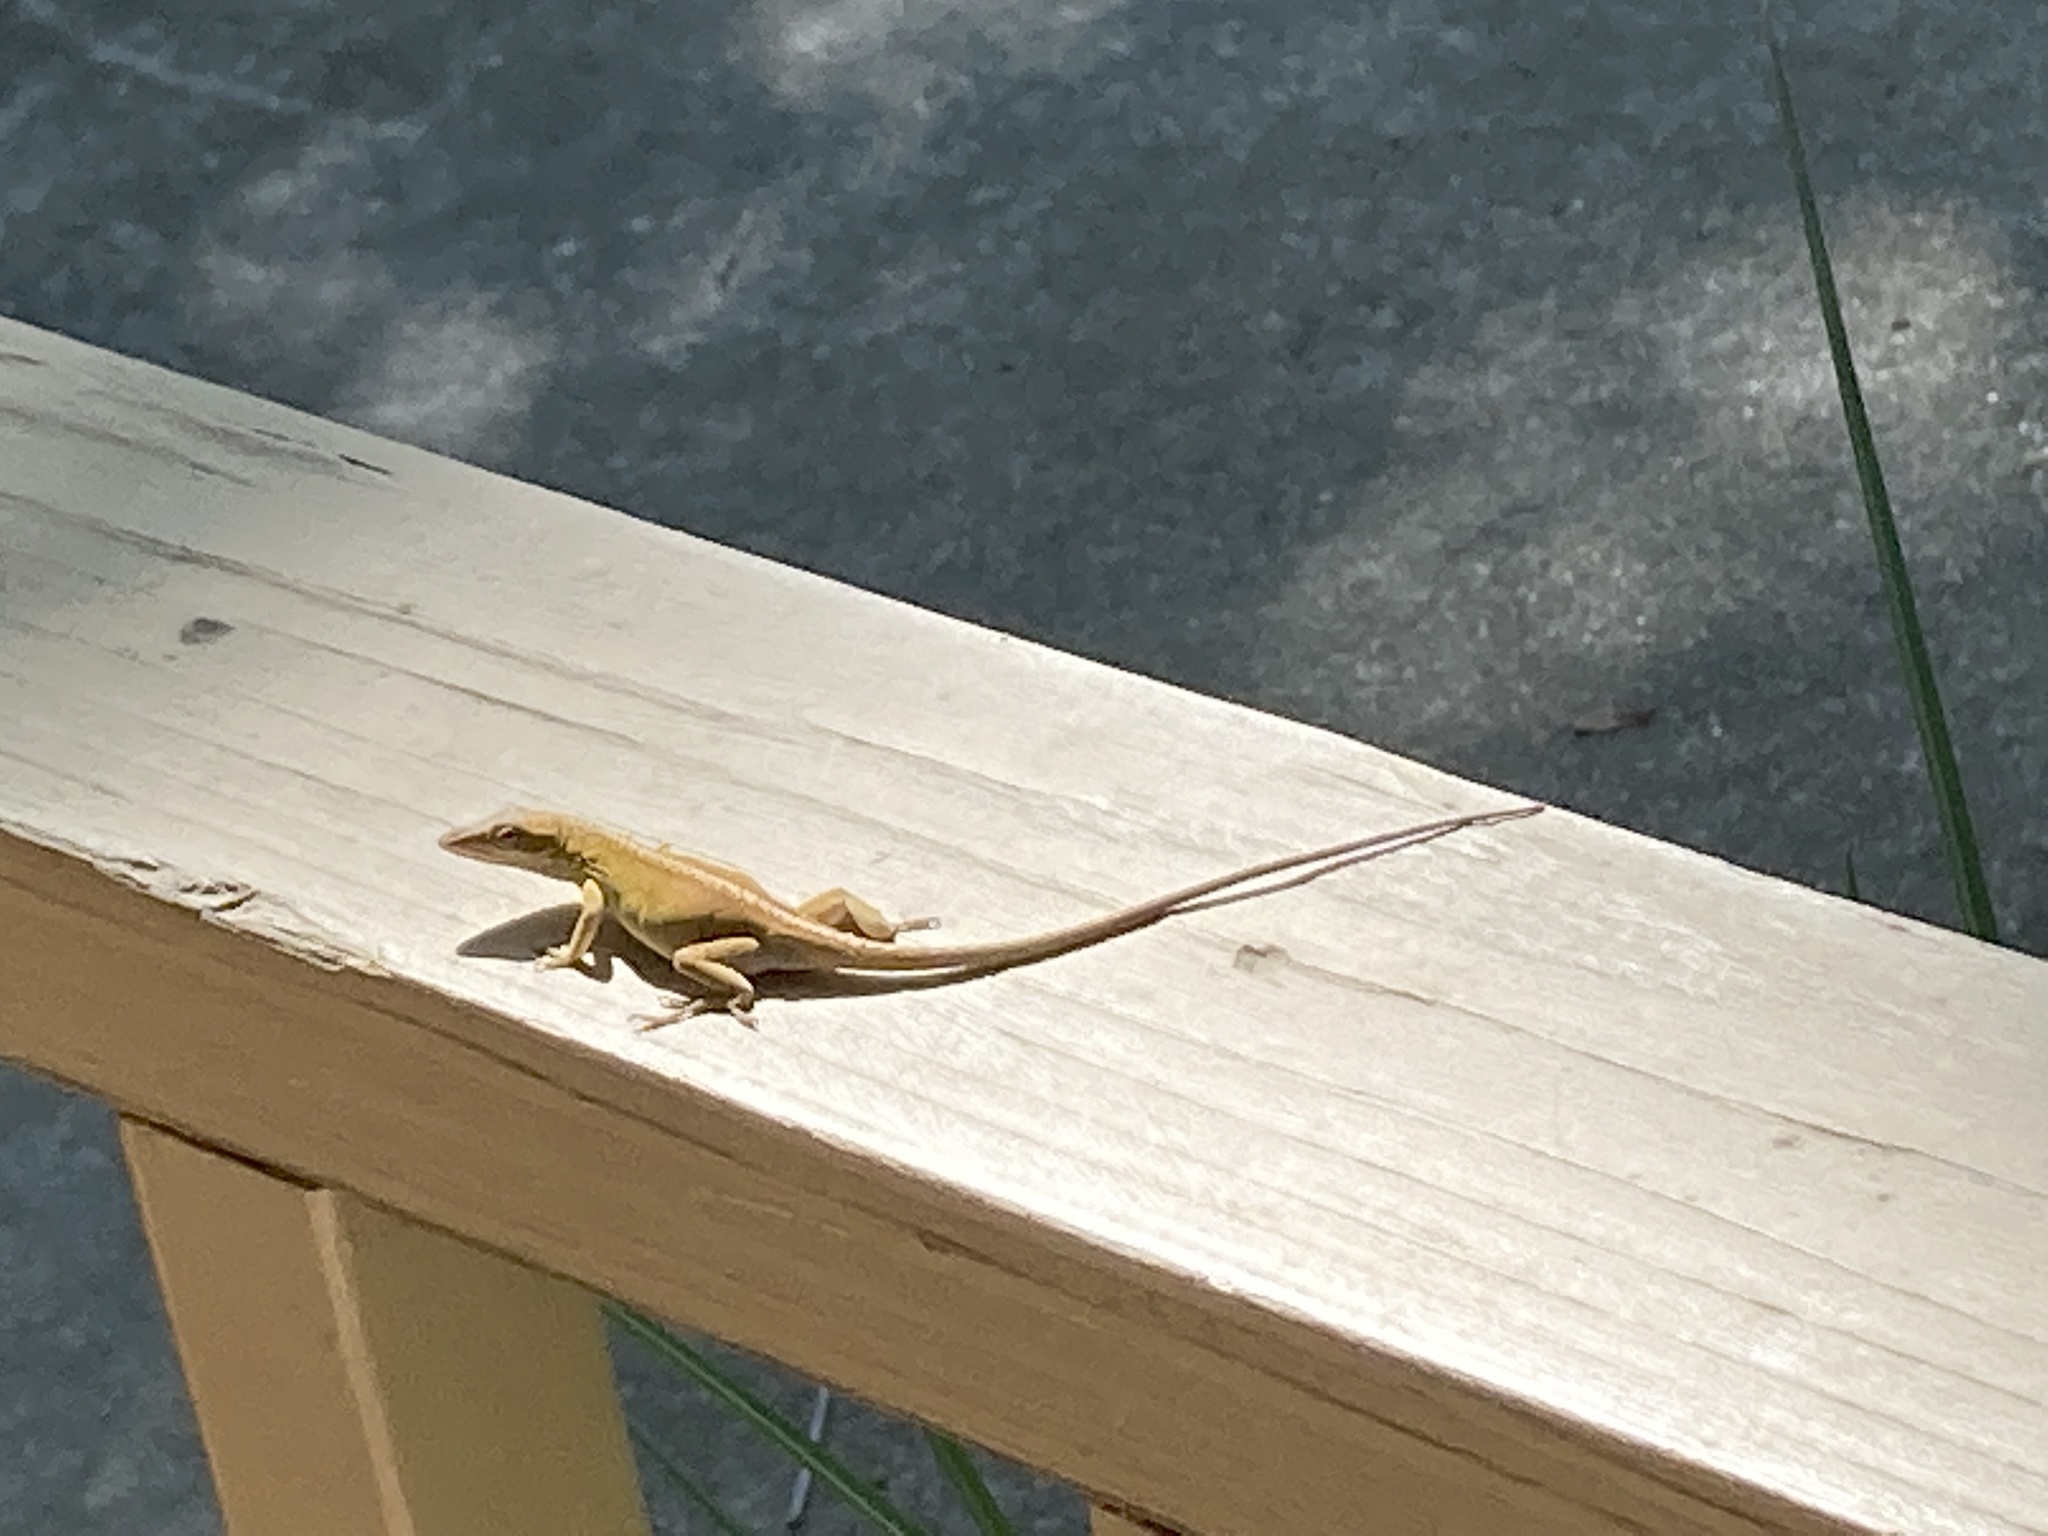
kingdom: Animalia
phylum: Chordata
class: Squamata
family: Dactyloidae
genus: Anolis
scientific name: Anolis carolinensis
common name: Green anole
